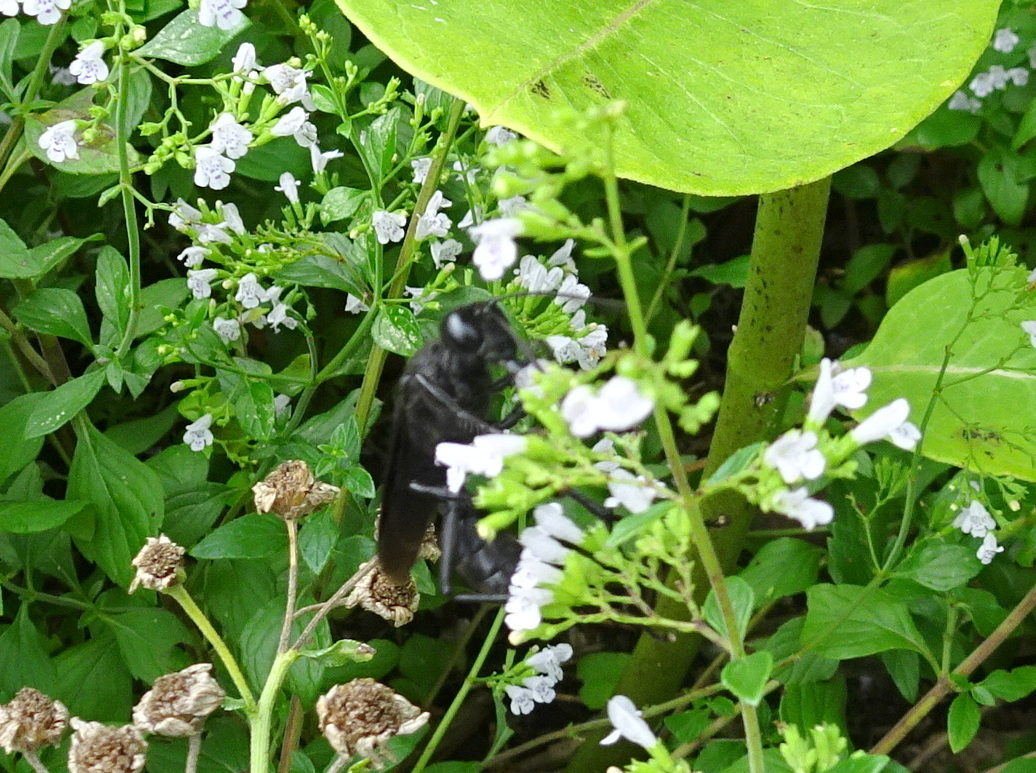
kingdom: Animalia
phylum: Arthropoda
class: Insecta
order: Hymenoptera
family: Sphecidae
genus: Sphex
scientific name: Sphex pensylvanicus
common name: Great black digger wasp
